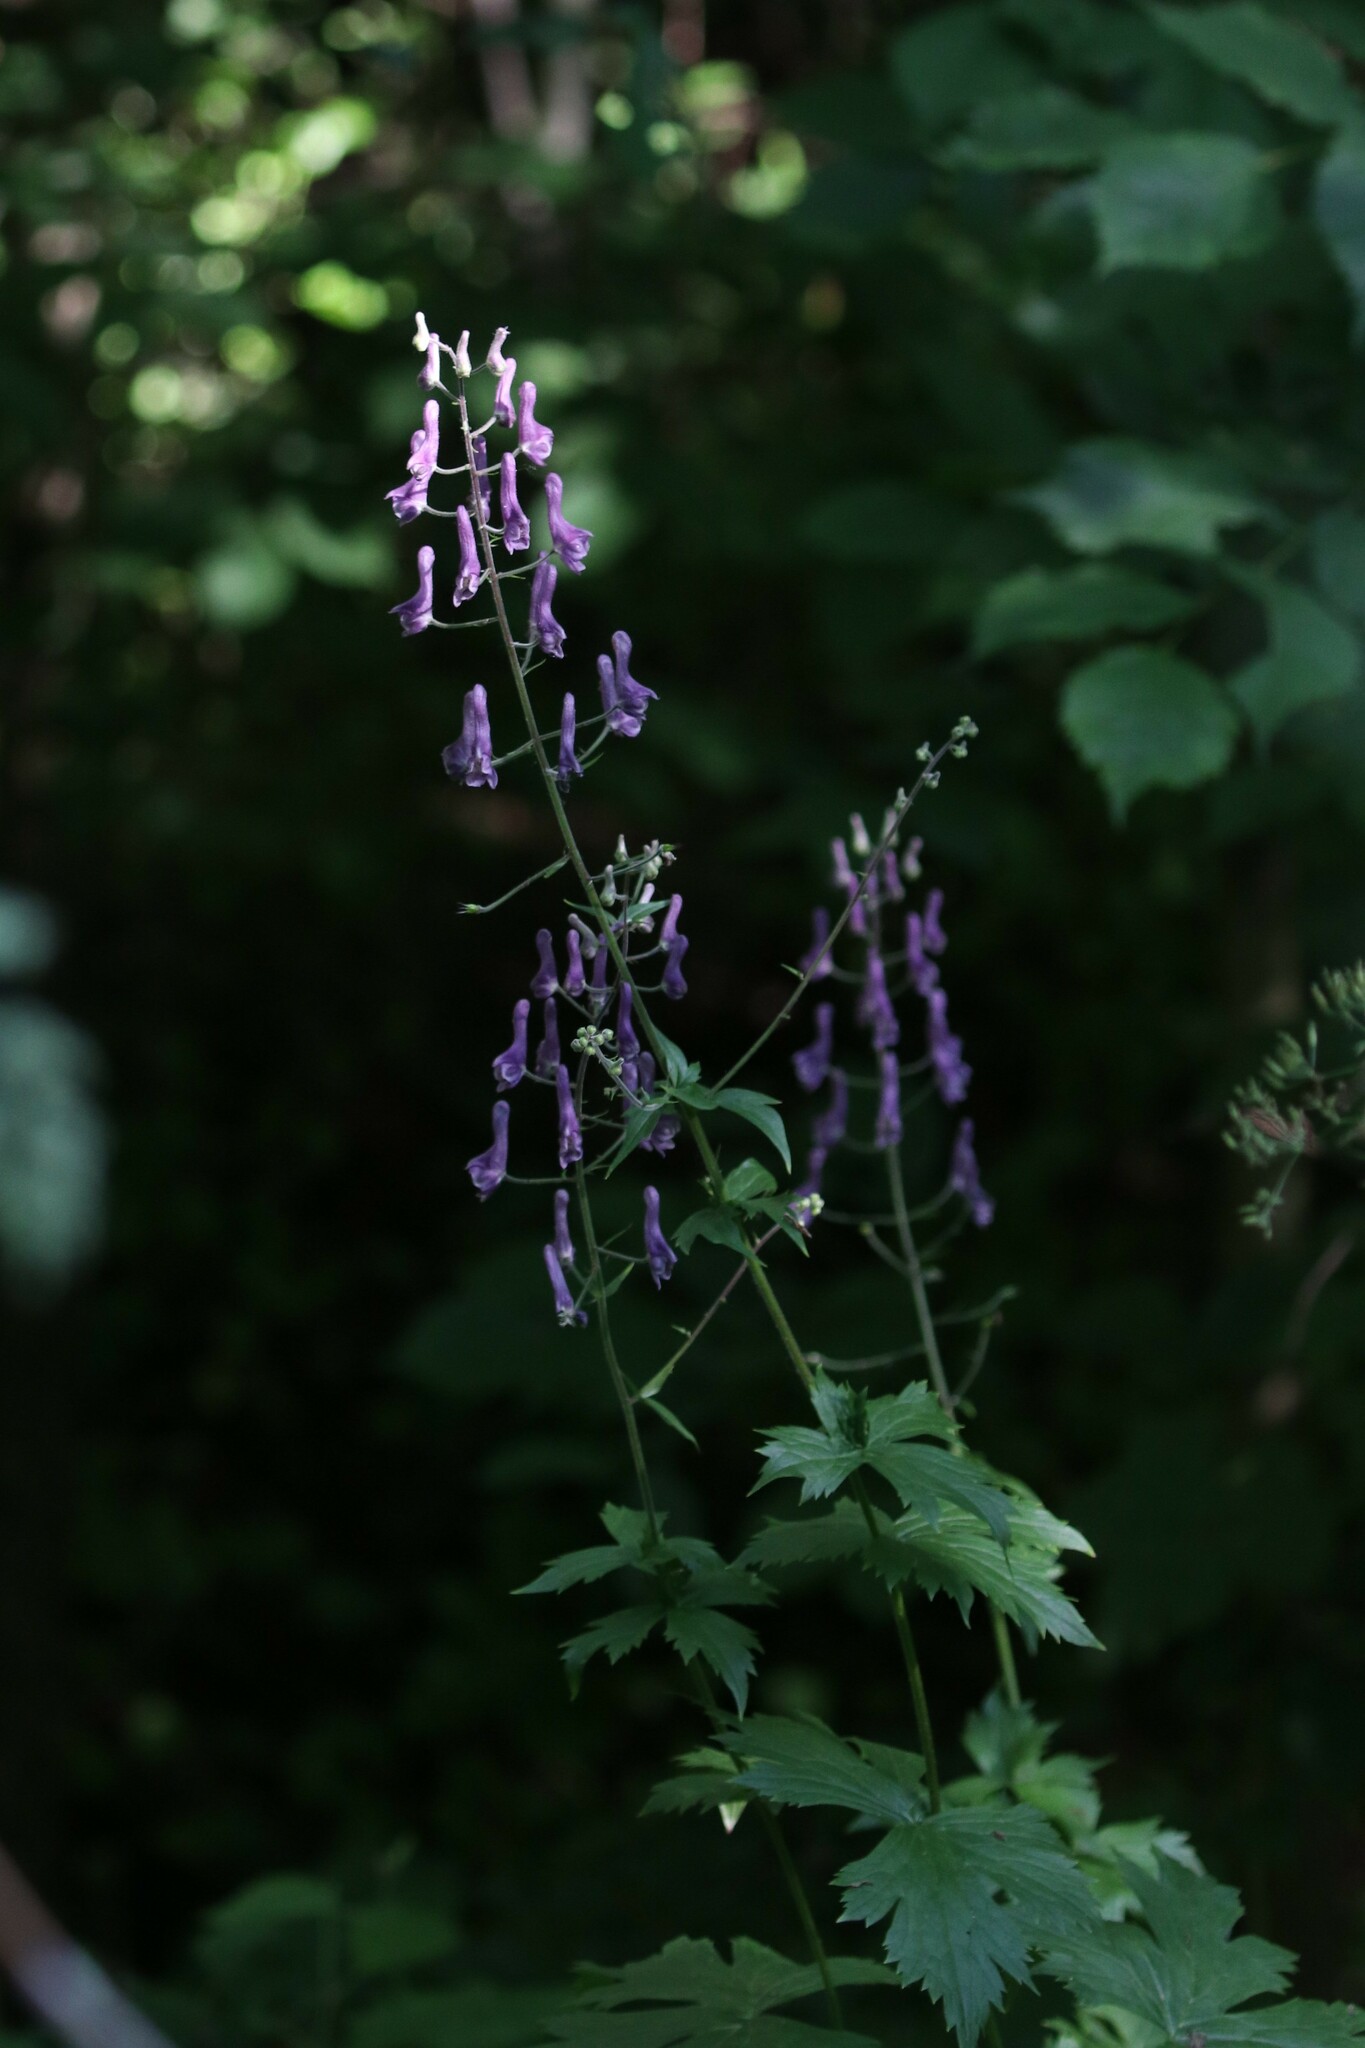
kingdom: Plantae
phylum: Tracheophyta
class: Magnoliopsida
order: Ranunculales
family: Ranunculaceae
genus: Aconitum
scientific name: Aconitum septentrionale
